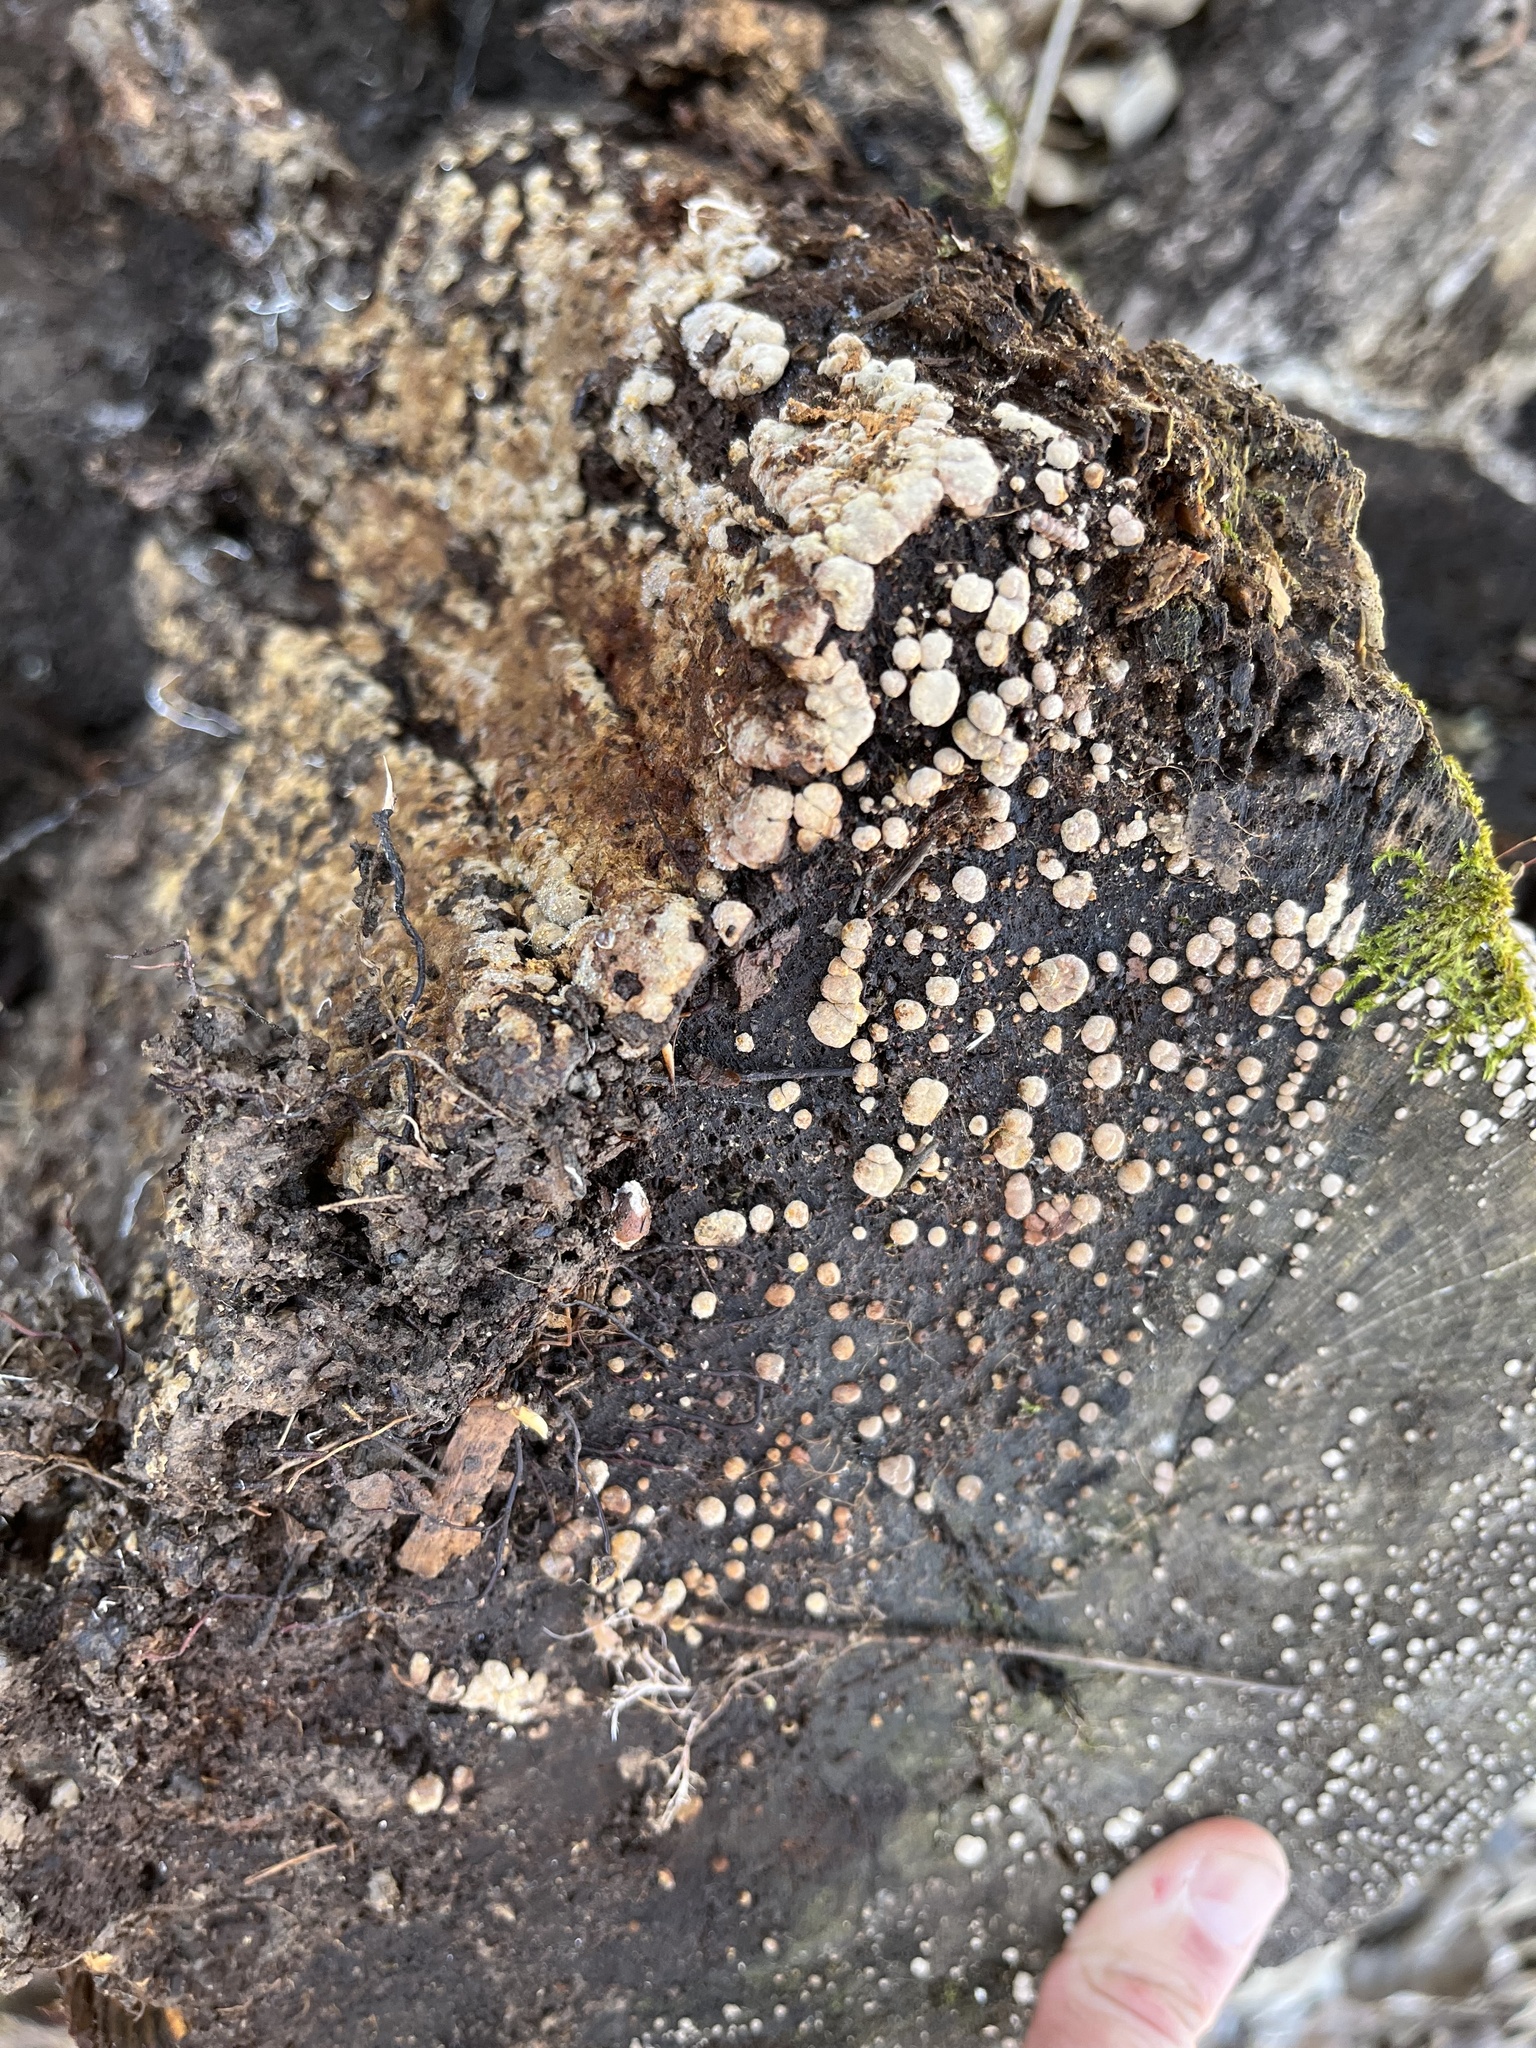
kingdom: Fungi
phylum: Basidiomycota
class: Agaricomycetes
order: Russulales
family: Stereaceae
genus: Xylobolus
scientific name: Xylobolus frustulatus
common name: Ceramic parchment
